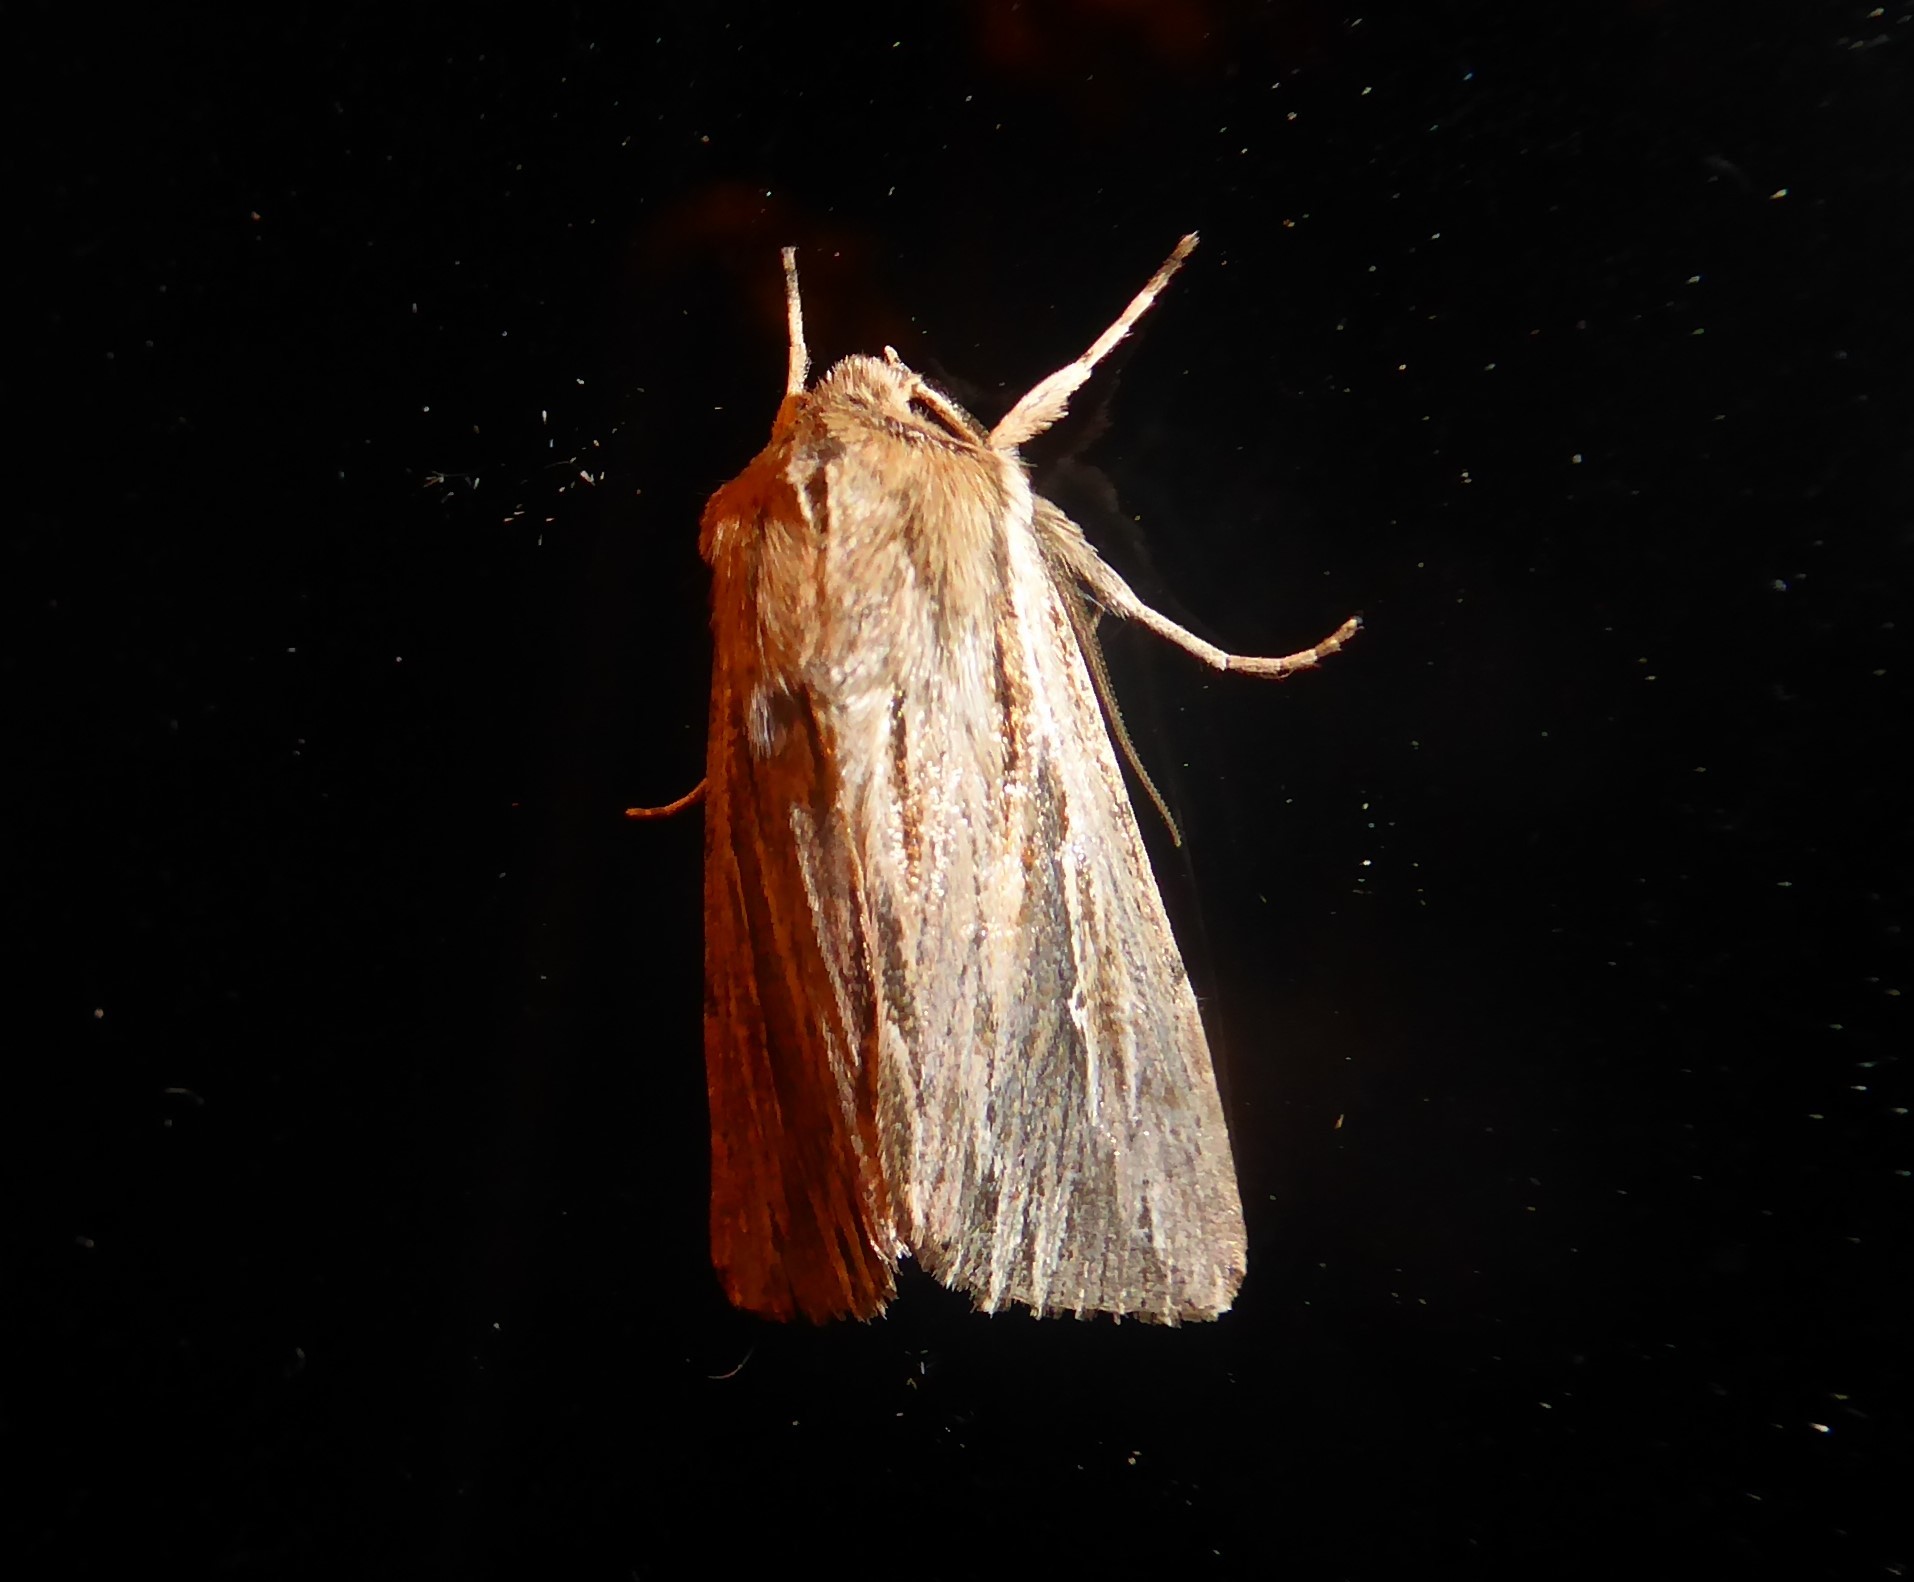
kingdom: Animalia
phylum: Arthropoda
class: Insecta
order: Lepidoptera
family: Noctuidae
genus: Persectania
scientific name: Persectania aversa
